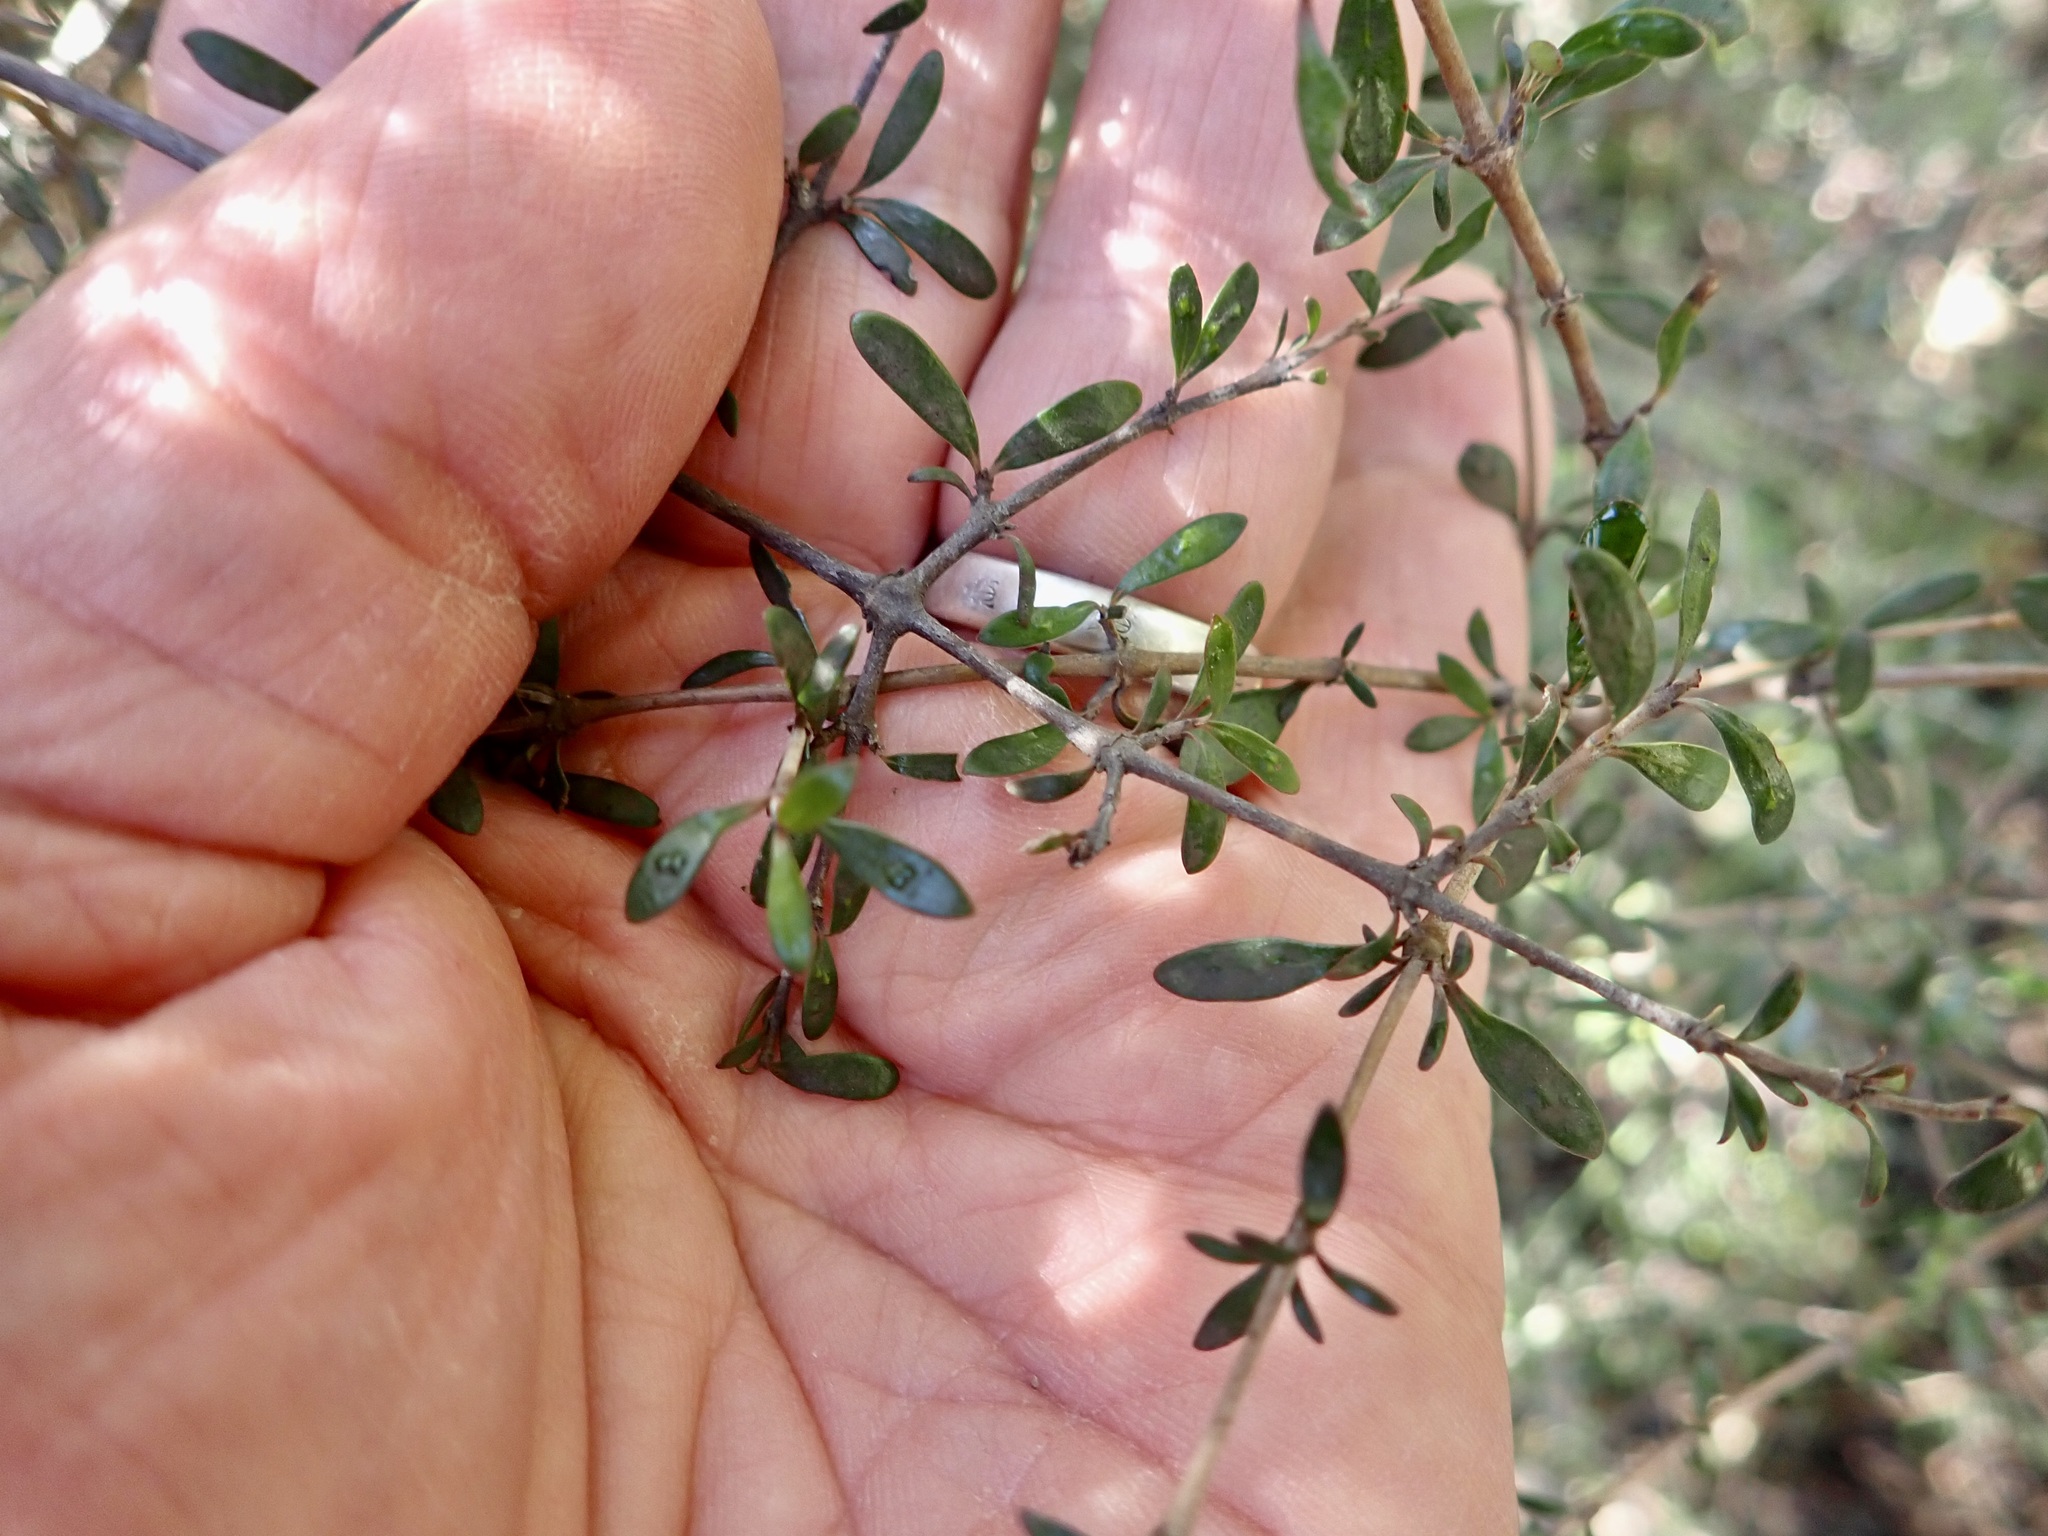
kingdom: Plantae
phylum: Tracheophyta
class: Magnoliopsida
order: Gentianales
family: Rubiaceae
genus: Coprosma
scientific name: Coprosma propinqua
